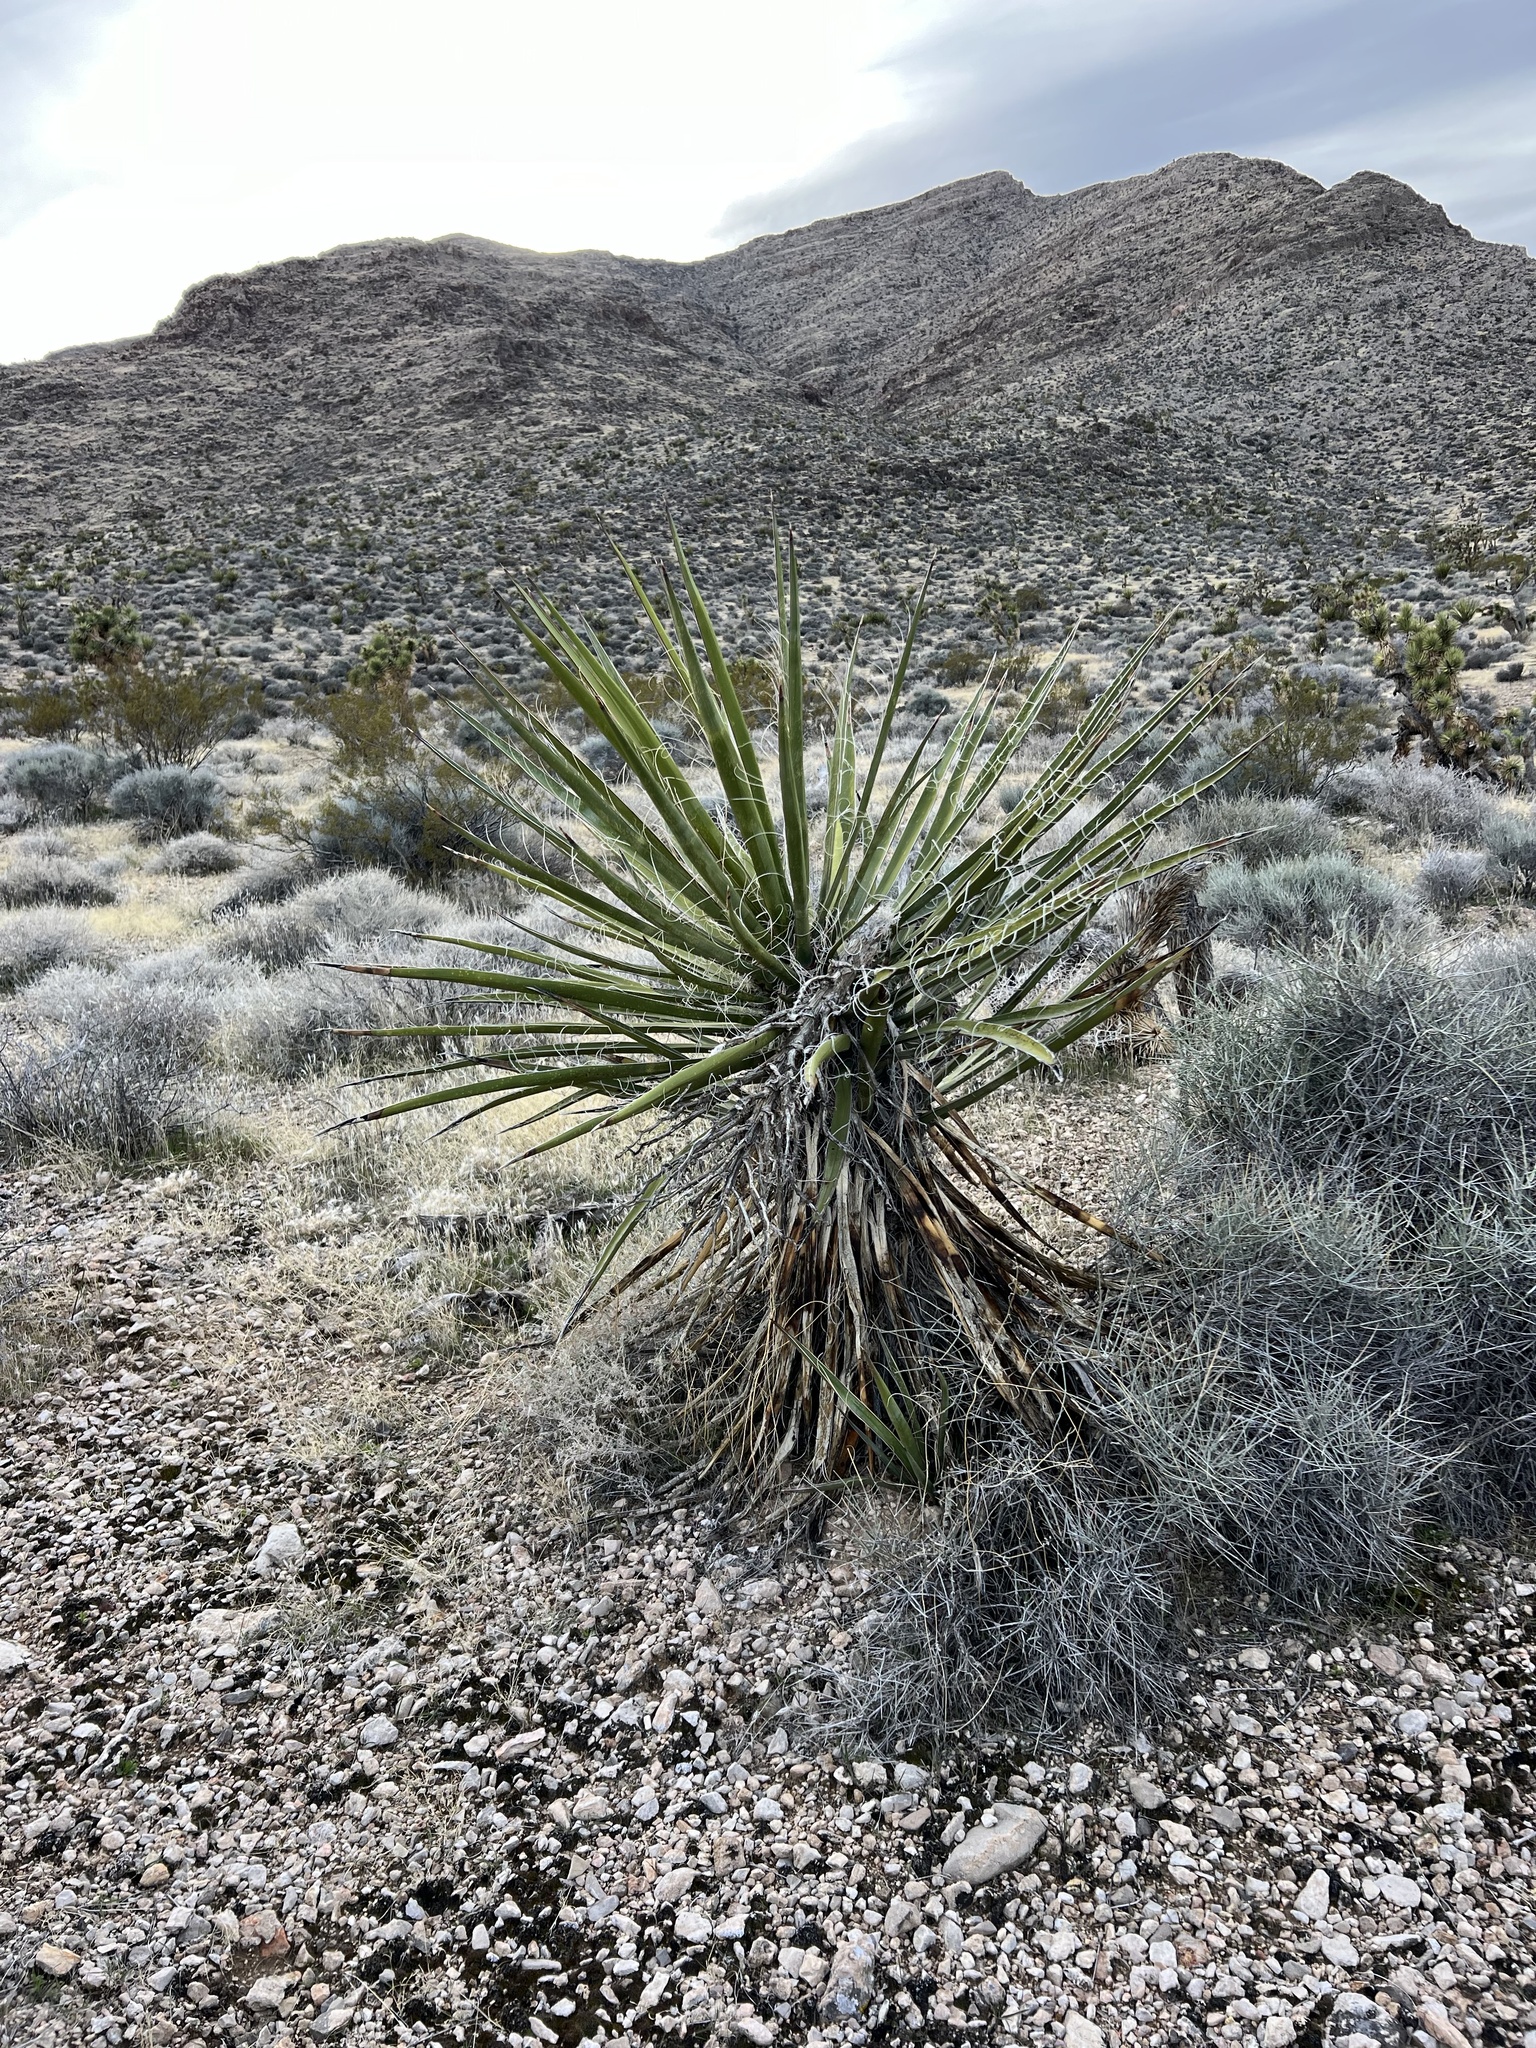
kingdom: Plantae
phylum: Tracheophyta
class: Liliopsida
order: Asparagales
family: Asparagaceae
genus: Yucca
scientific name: Yucca schidigera
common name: Mojave yucca
